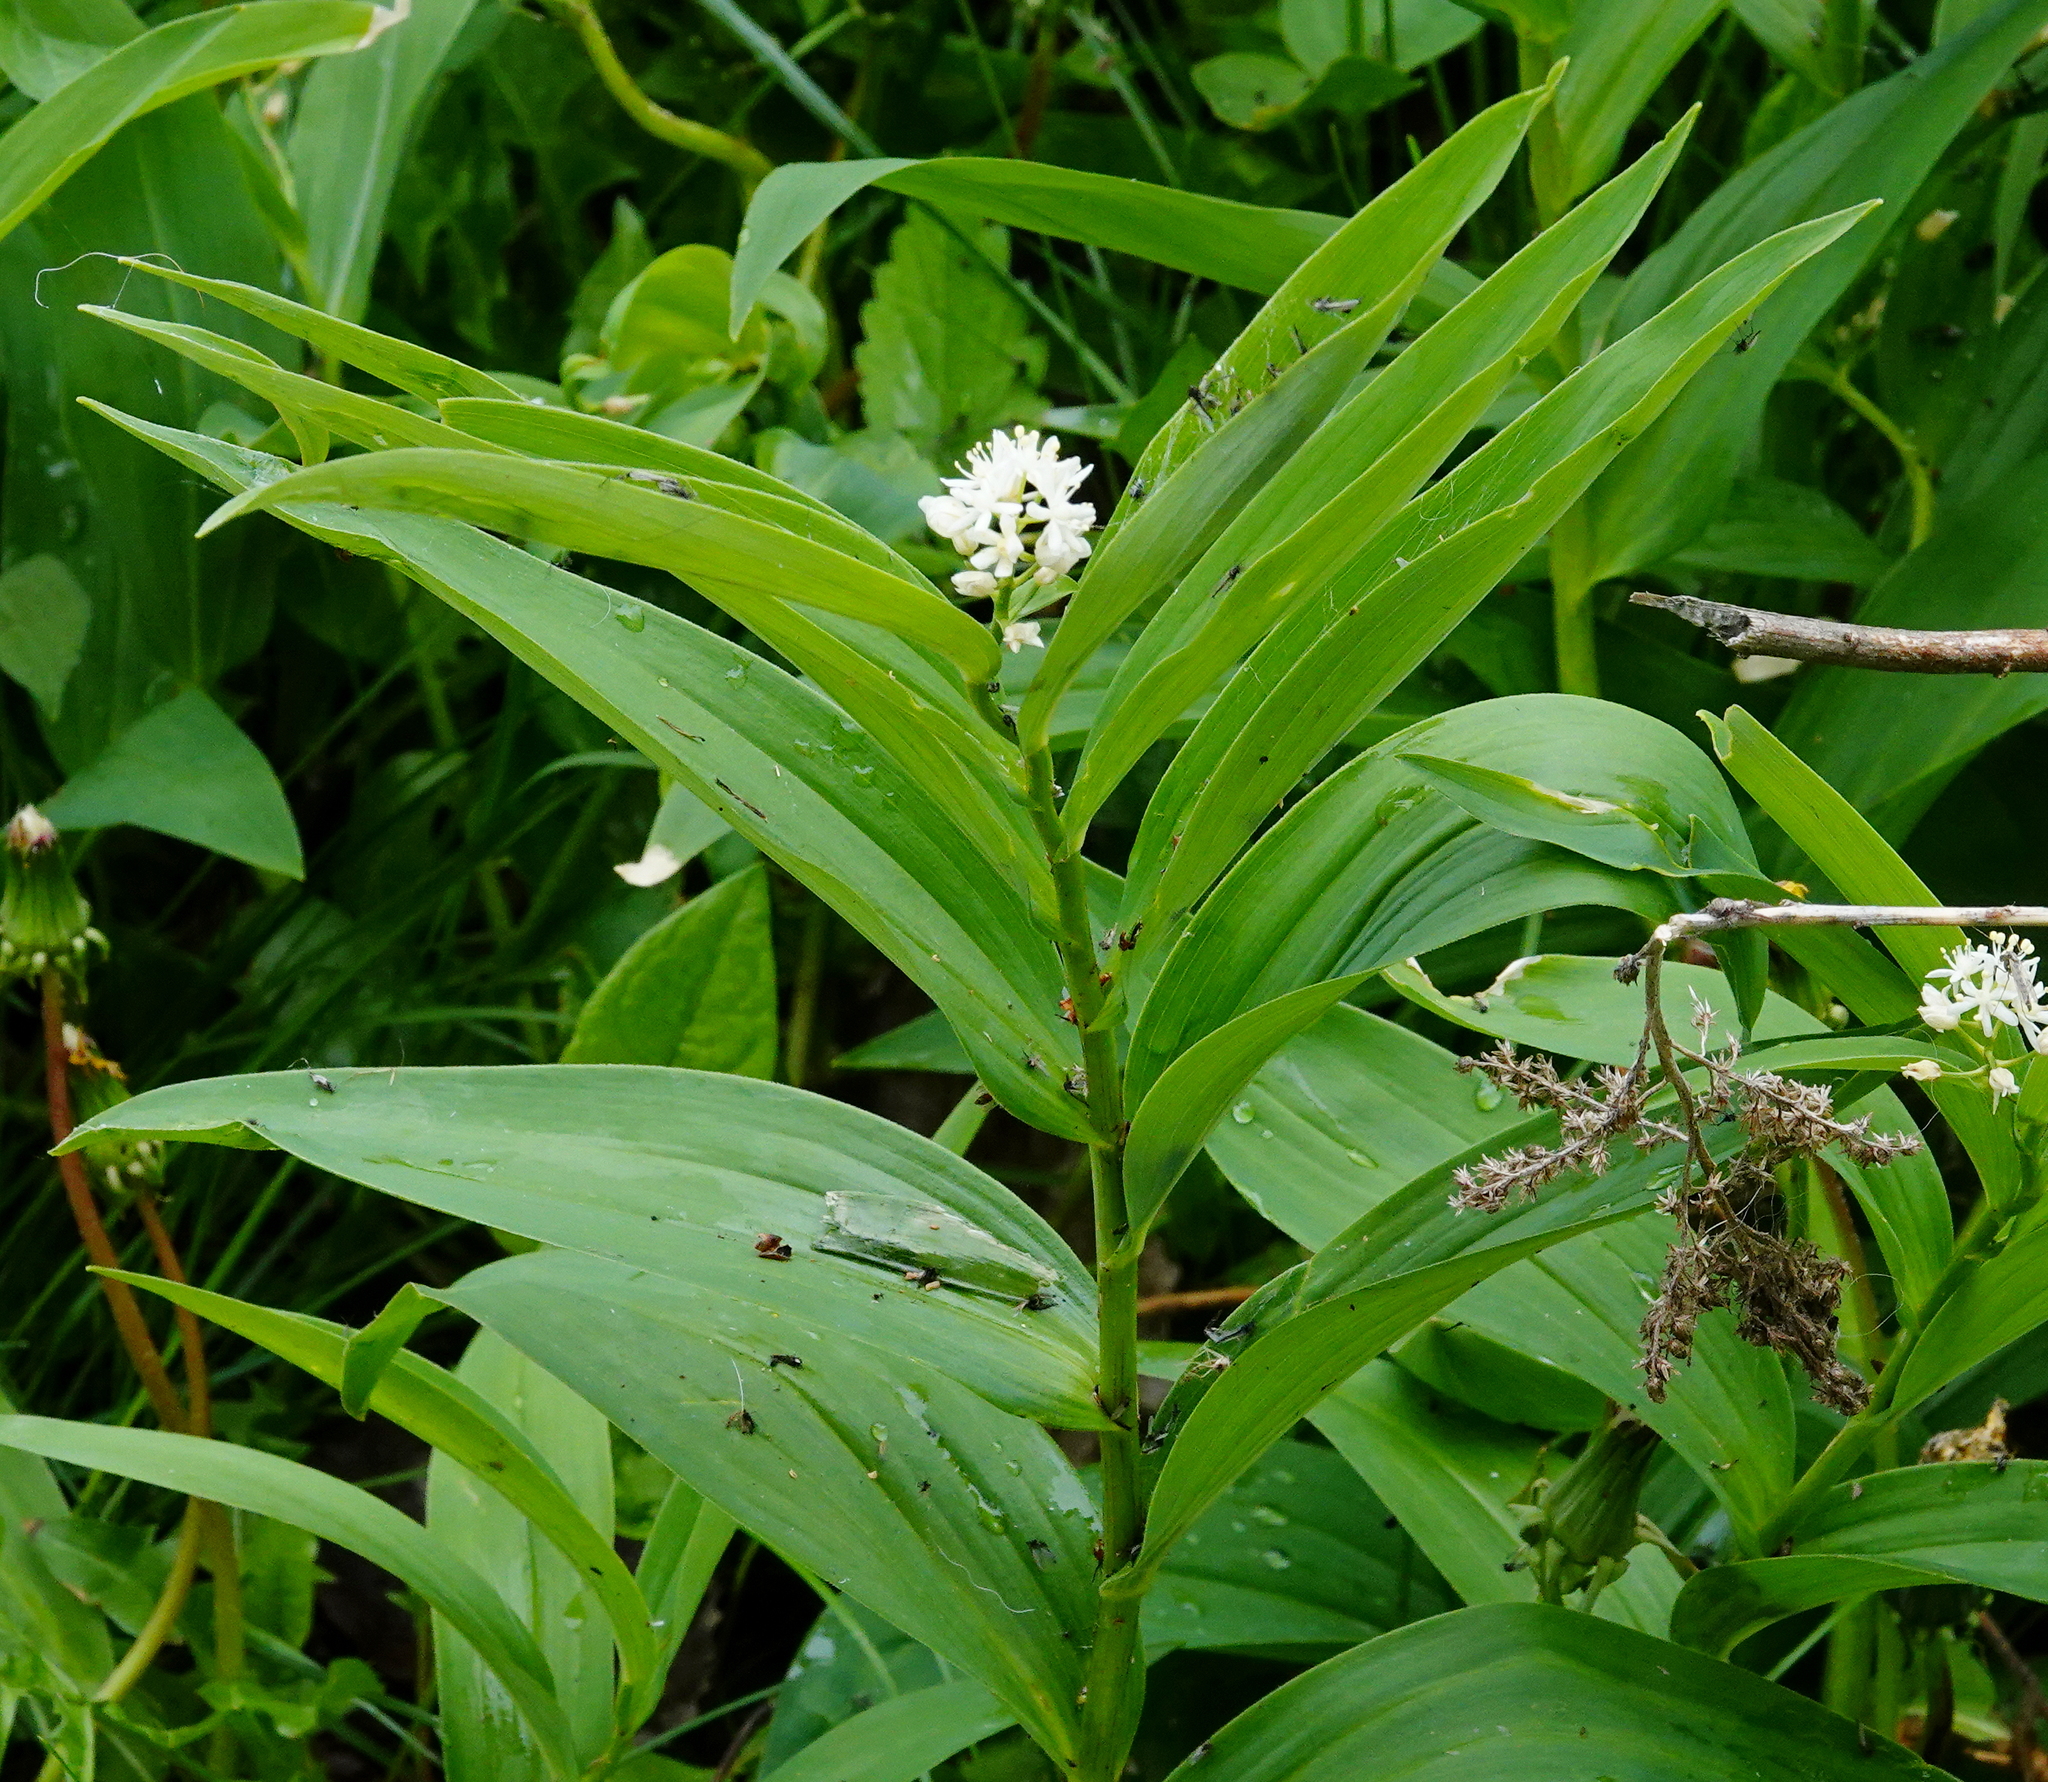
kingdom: Plantae
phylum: Tracheophyta
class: Liliopsida
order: Asparagales
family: Asparagaceae
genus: Maianthemum
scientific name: Maianthemum stellatum
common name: Little false solomon's seal
